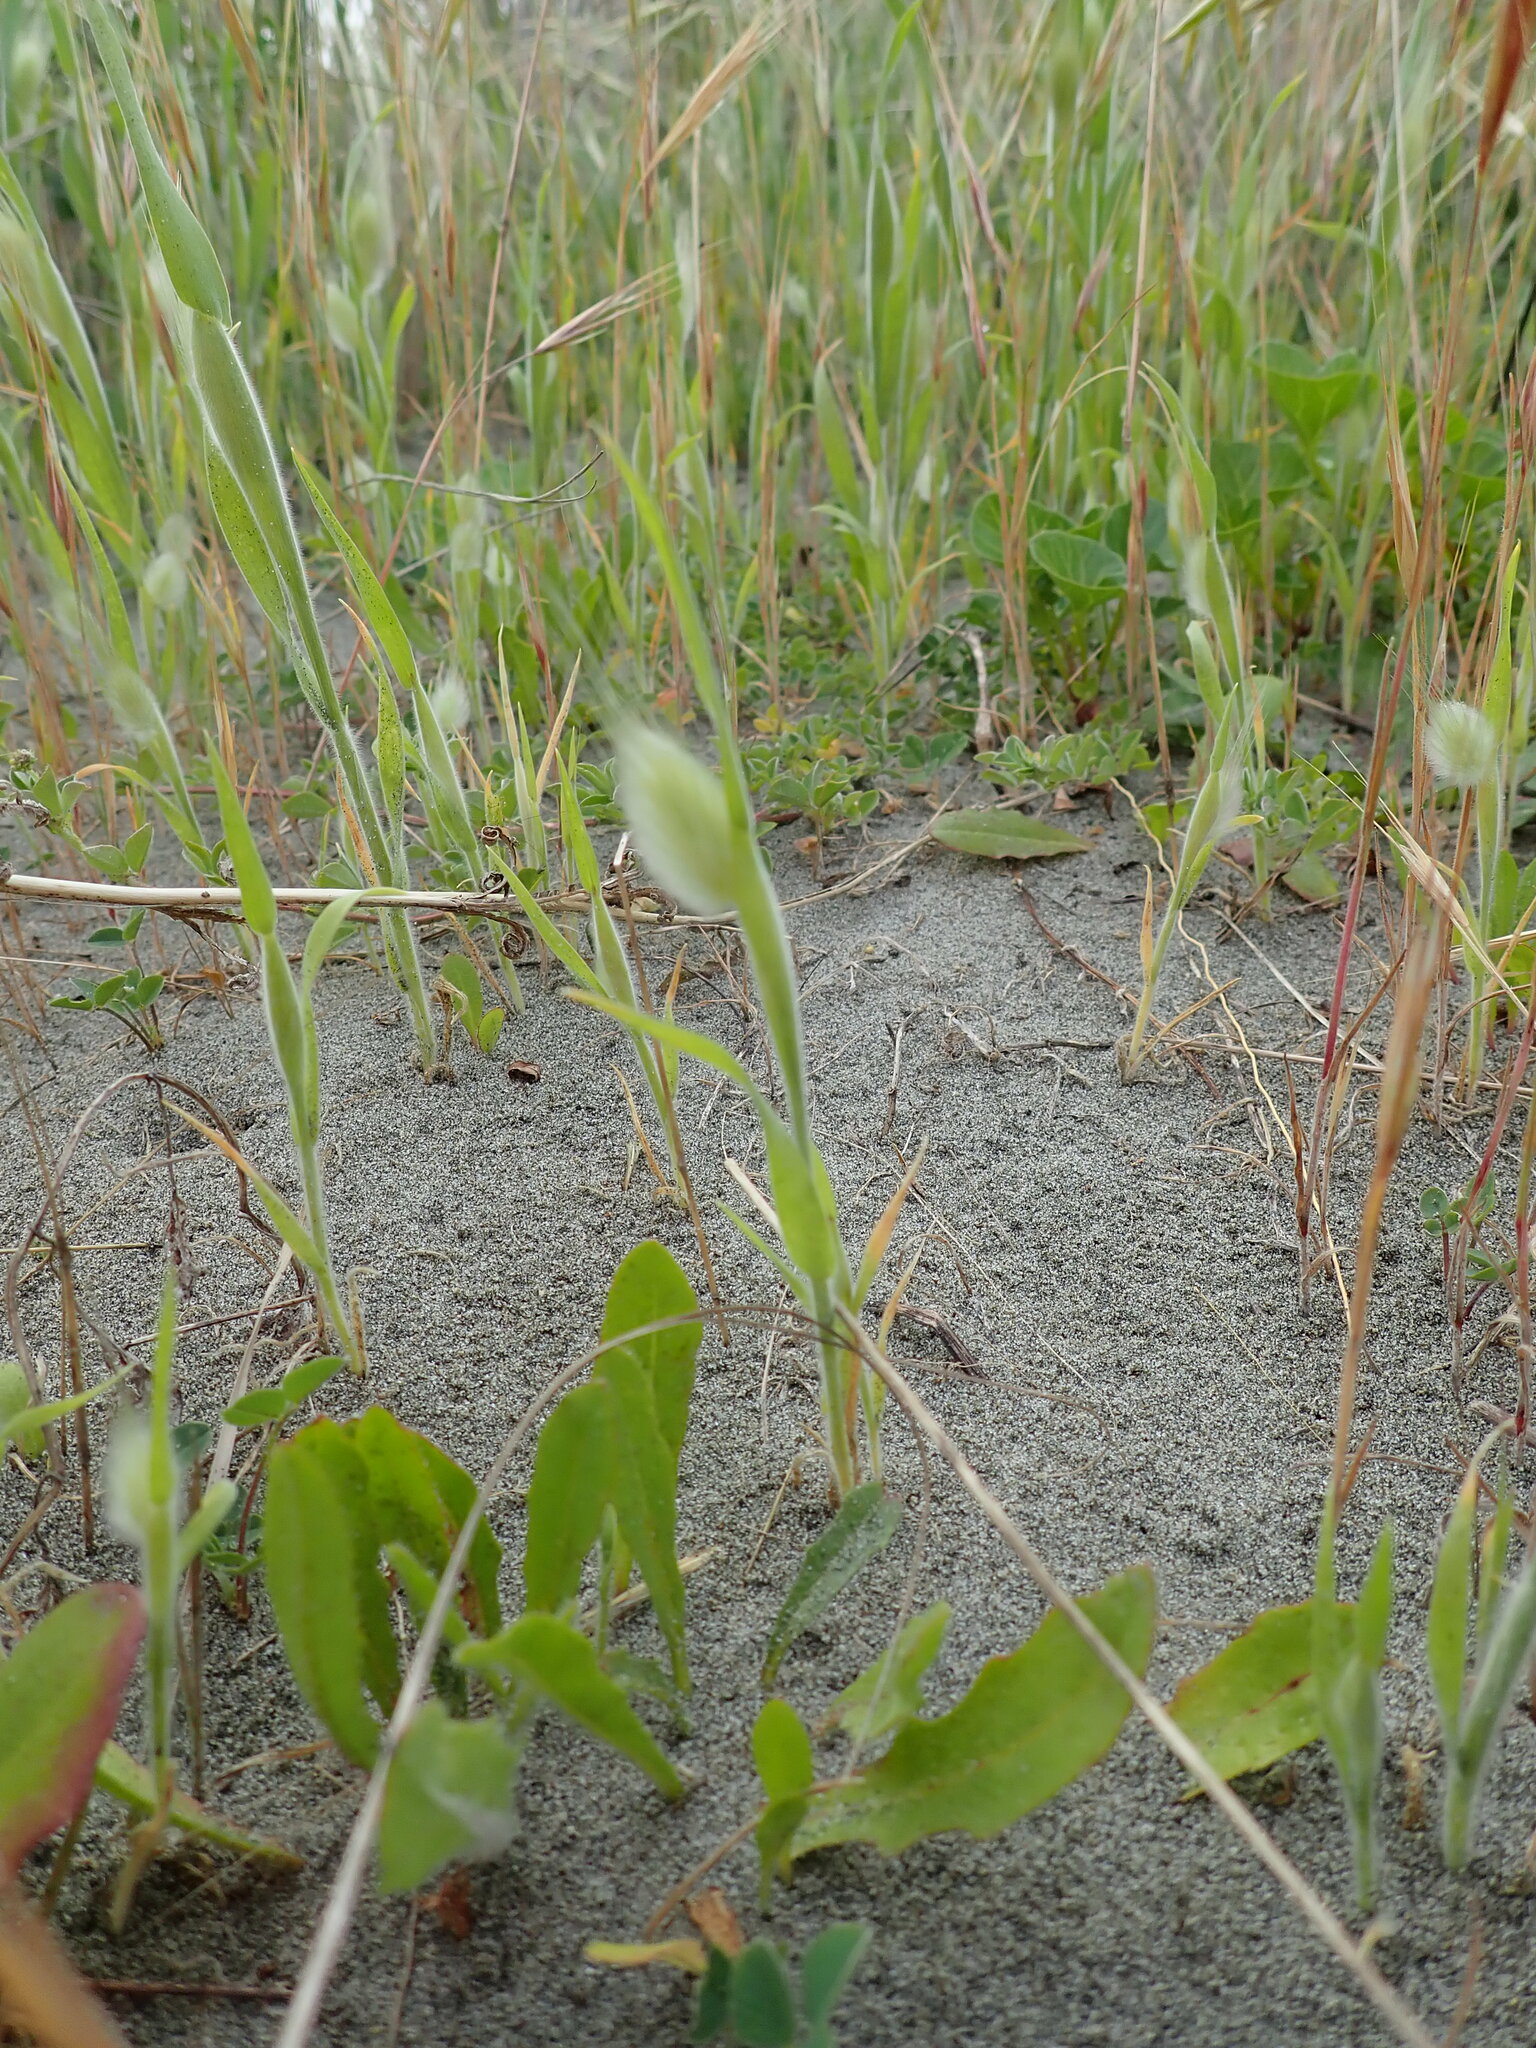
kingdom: Plantae
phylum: Tracheophyta
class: Liliopsida
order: Poales
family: Poaceae
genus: Lagurus
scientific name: Lagurus ovatus
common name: Hare's-tail
